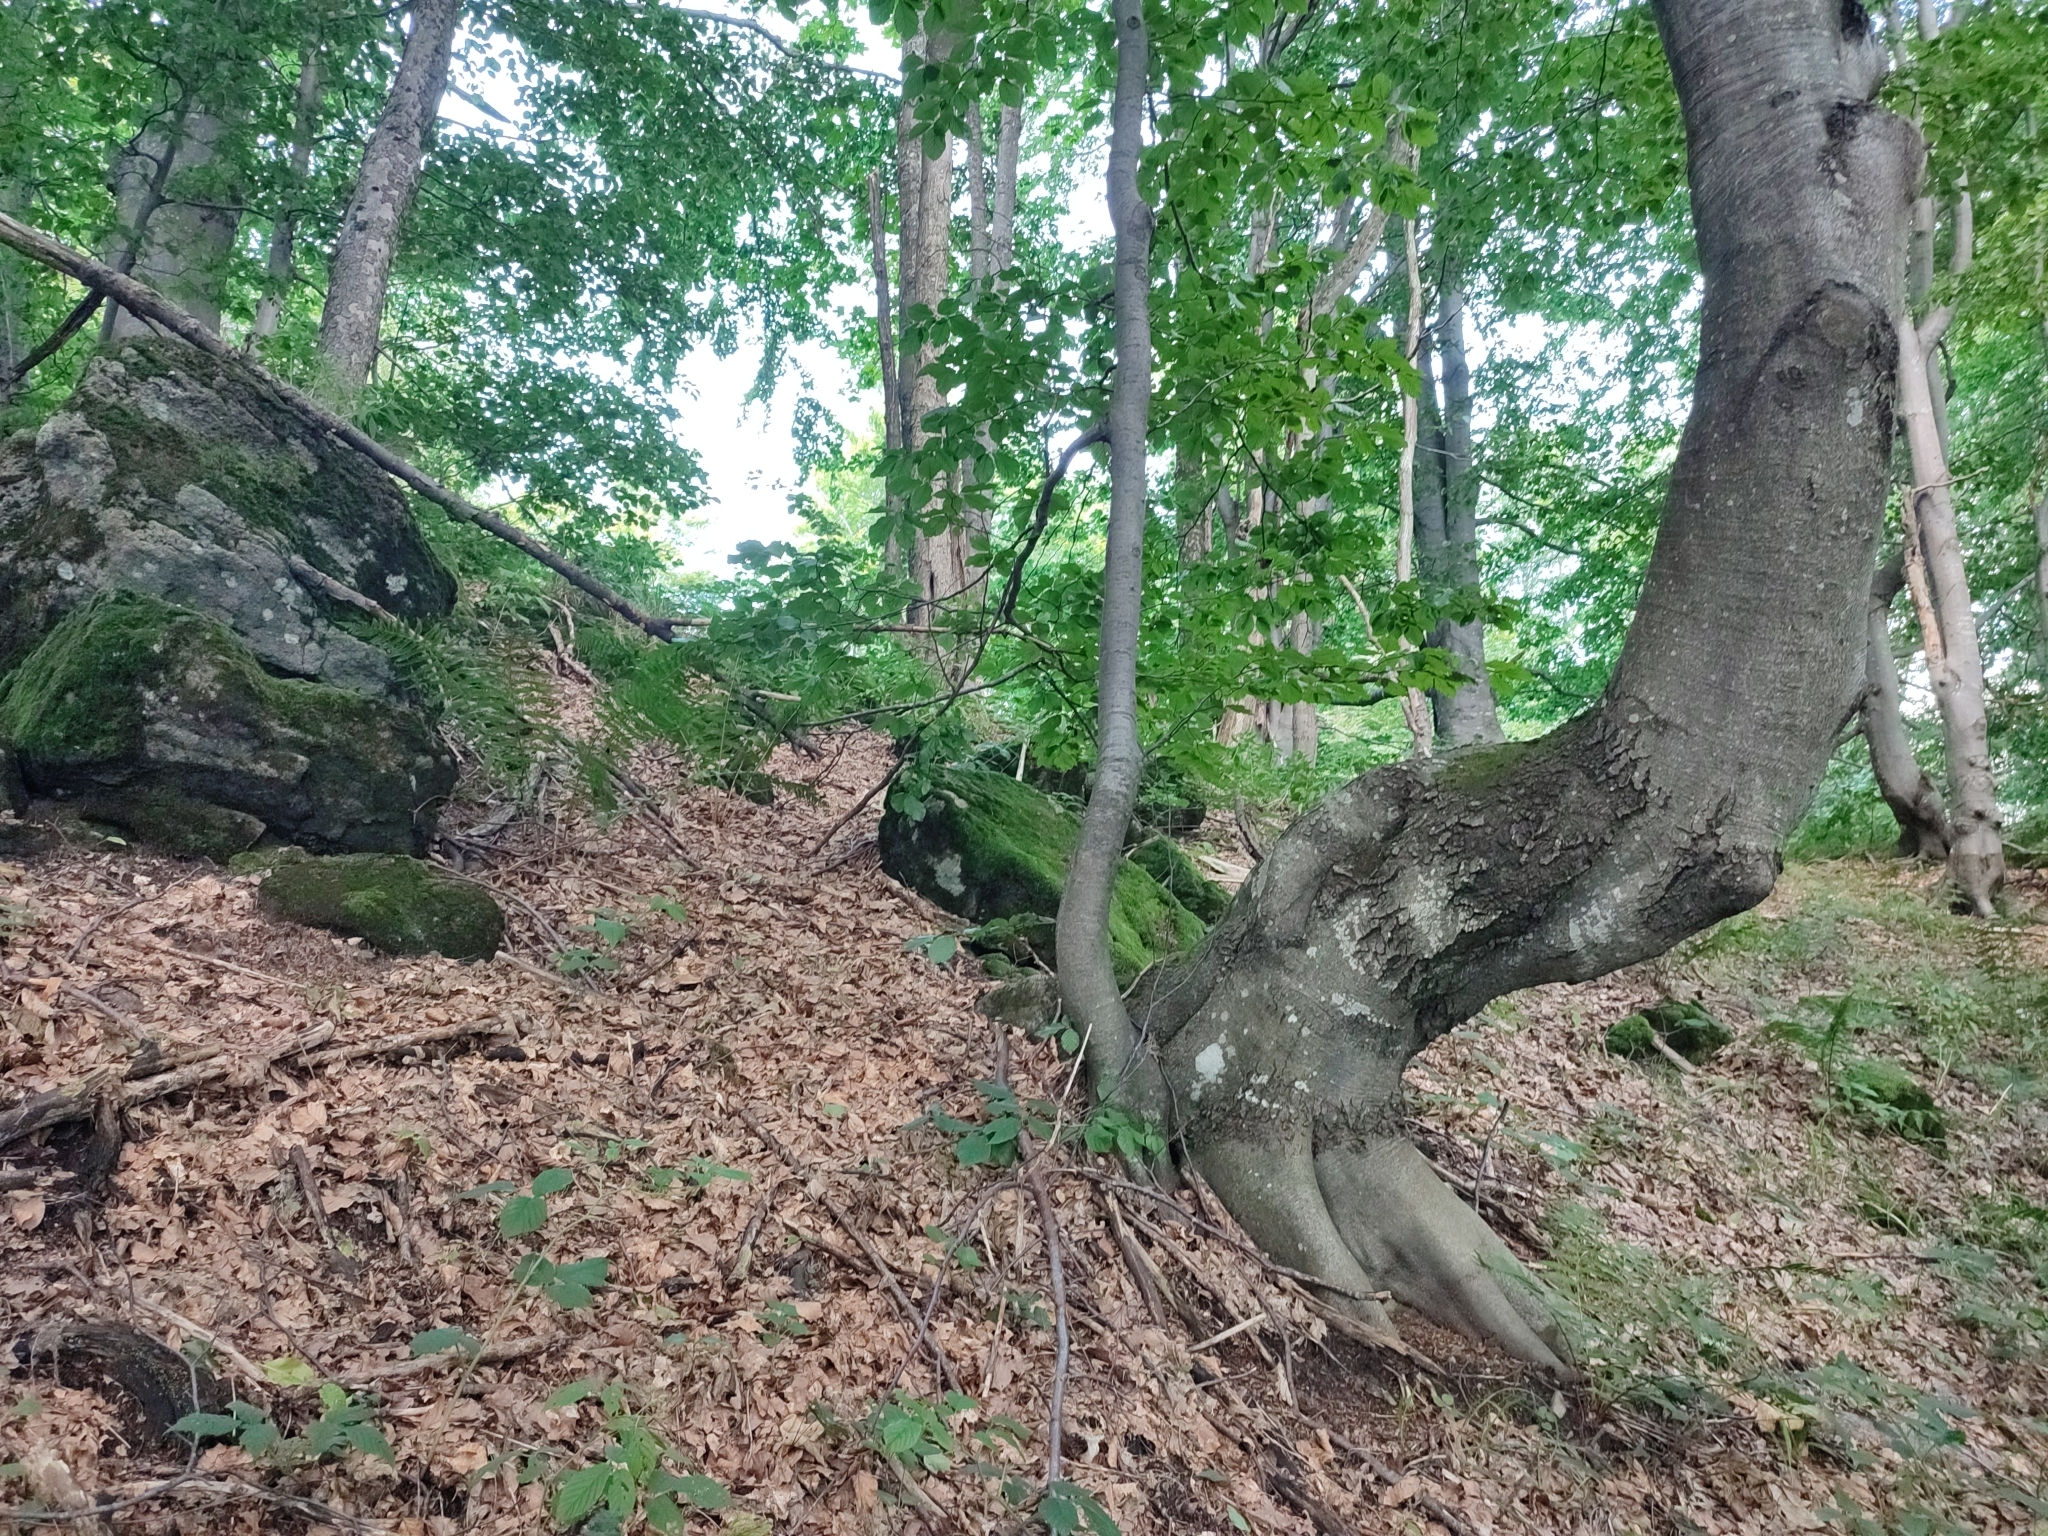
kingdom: Plantae
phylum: Tracheophyta
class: Magnoliopsida
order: Fagales
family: Fagaceae
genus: Fagus
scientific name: Fagus sylvatica
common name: Beech
